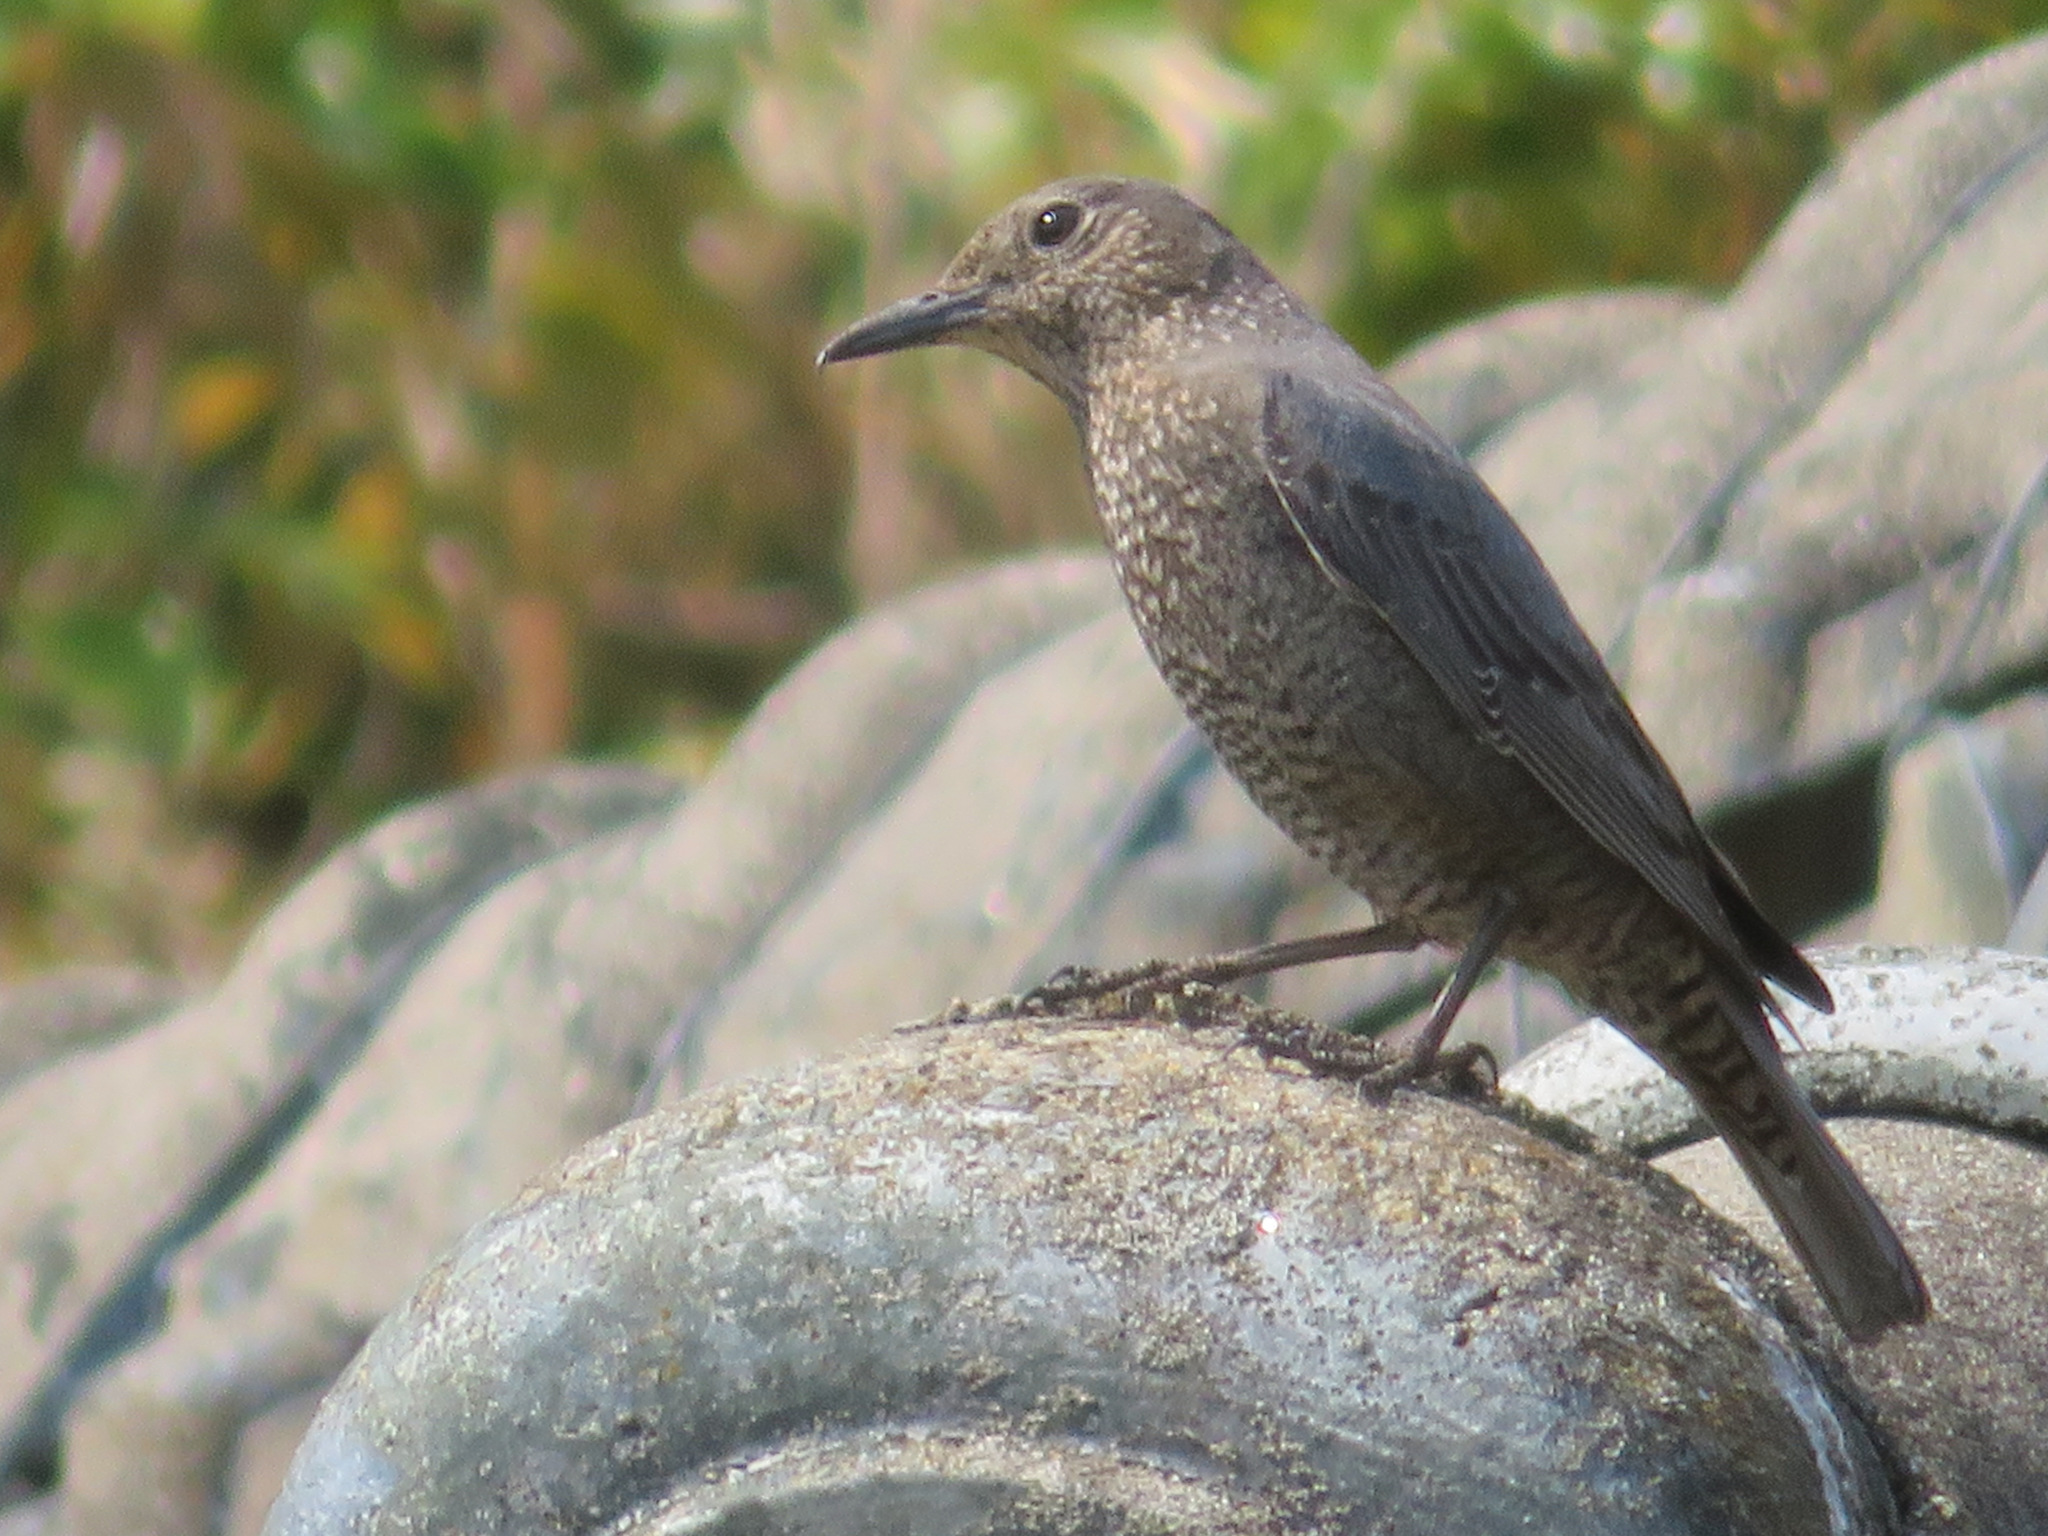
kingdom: Animalia
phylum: Chordata
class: Aves
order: Passeriformes
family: Muscicapidae
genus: Monticola
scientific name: Monticola solitarius
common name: Blue rock thrush
